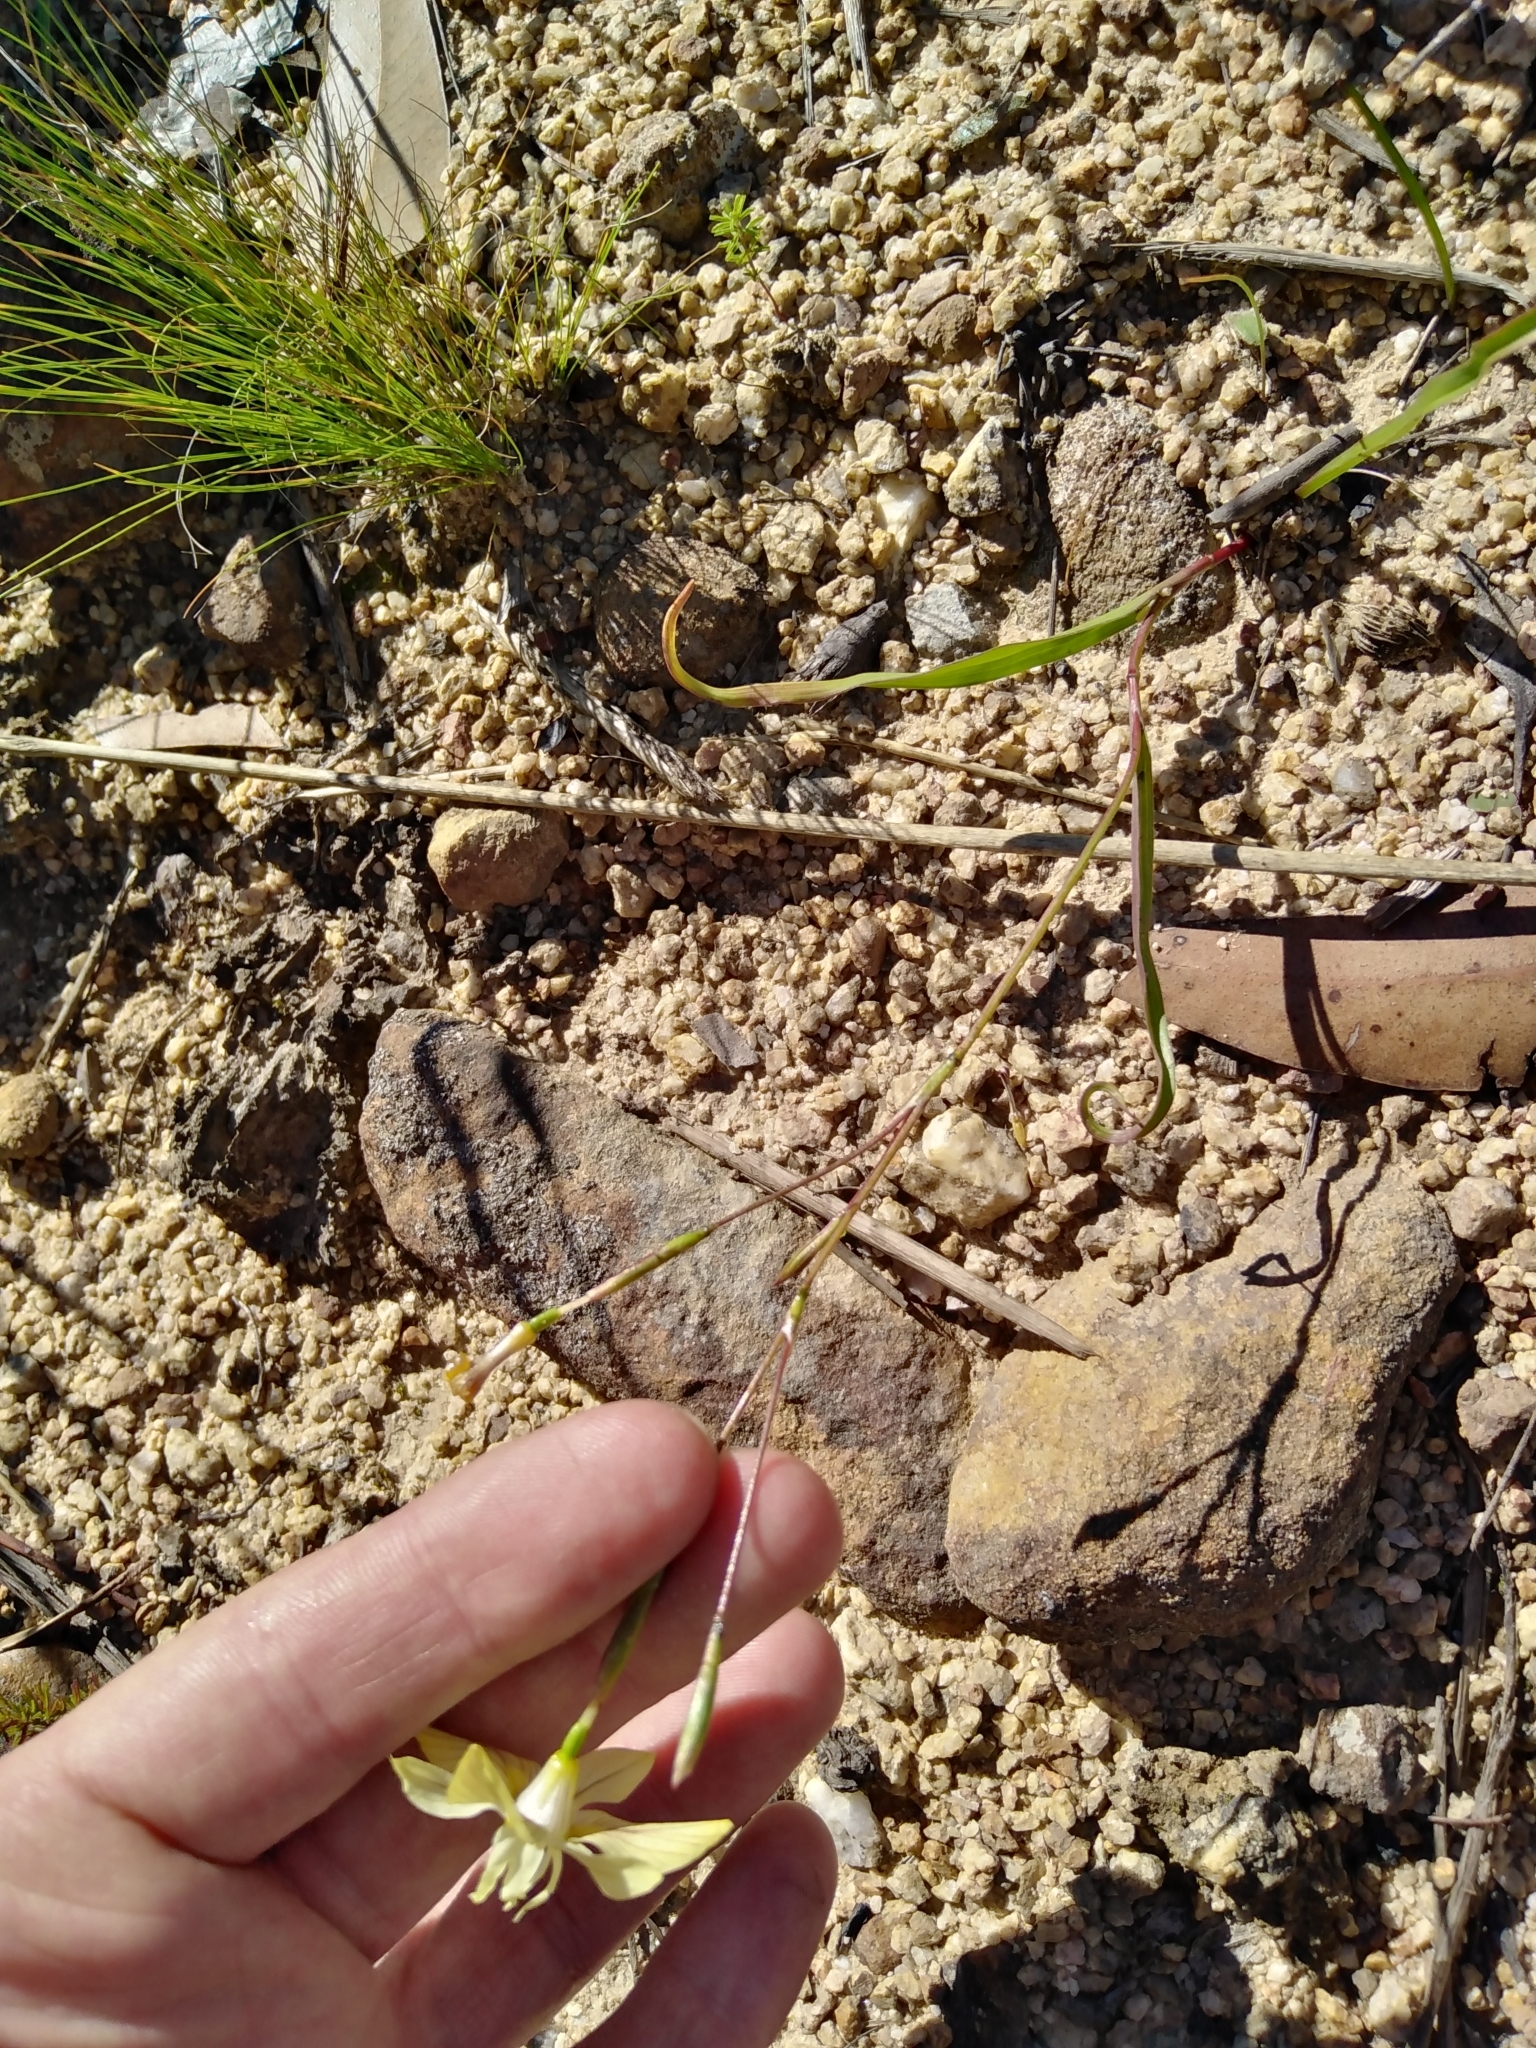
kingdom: Plantae
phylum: Tracheophyta
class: Liliopsida
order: Asparagales
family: Iridaceae
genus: Moraea
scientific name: Moraea gawleri
